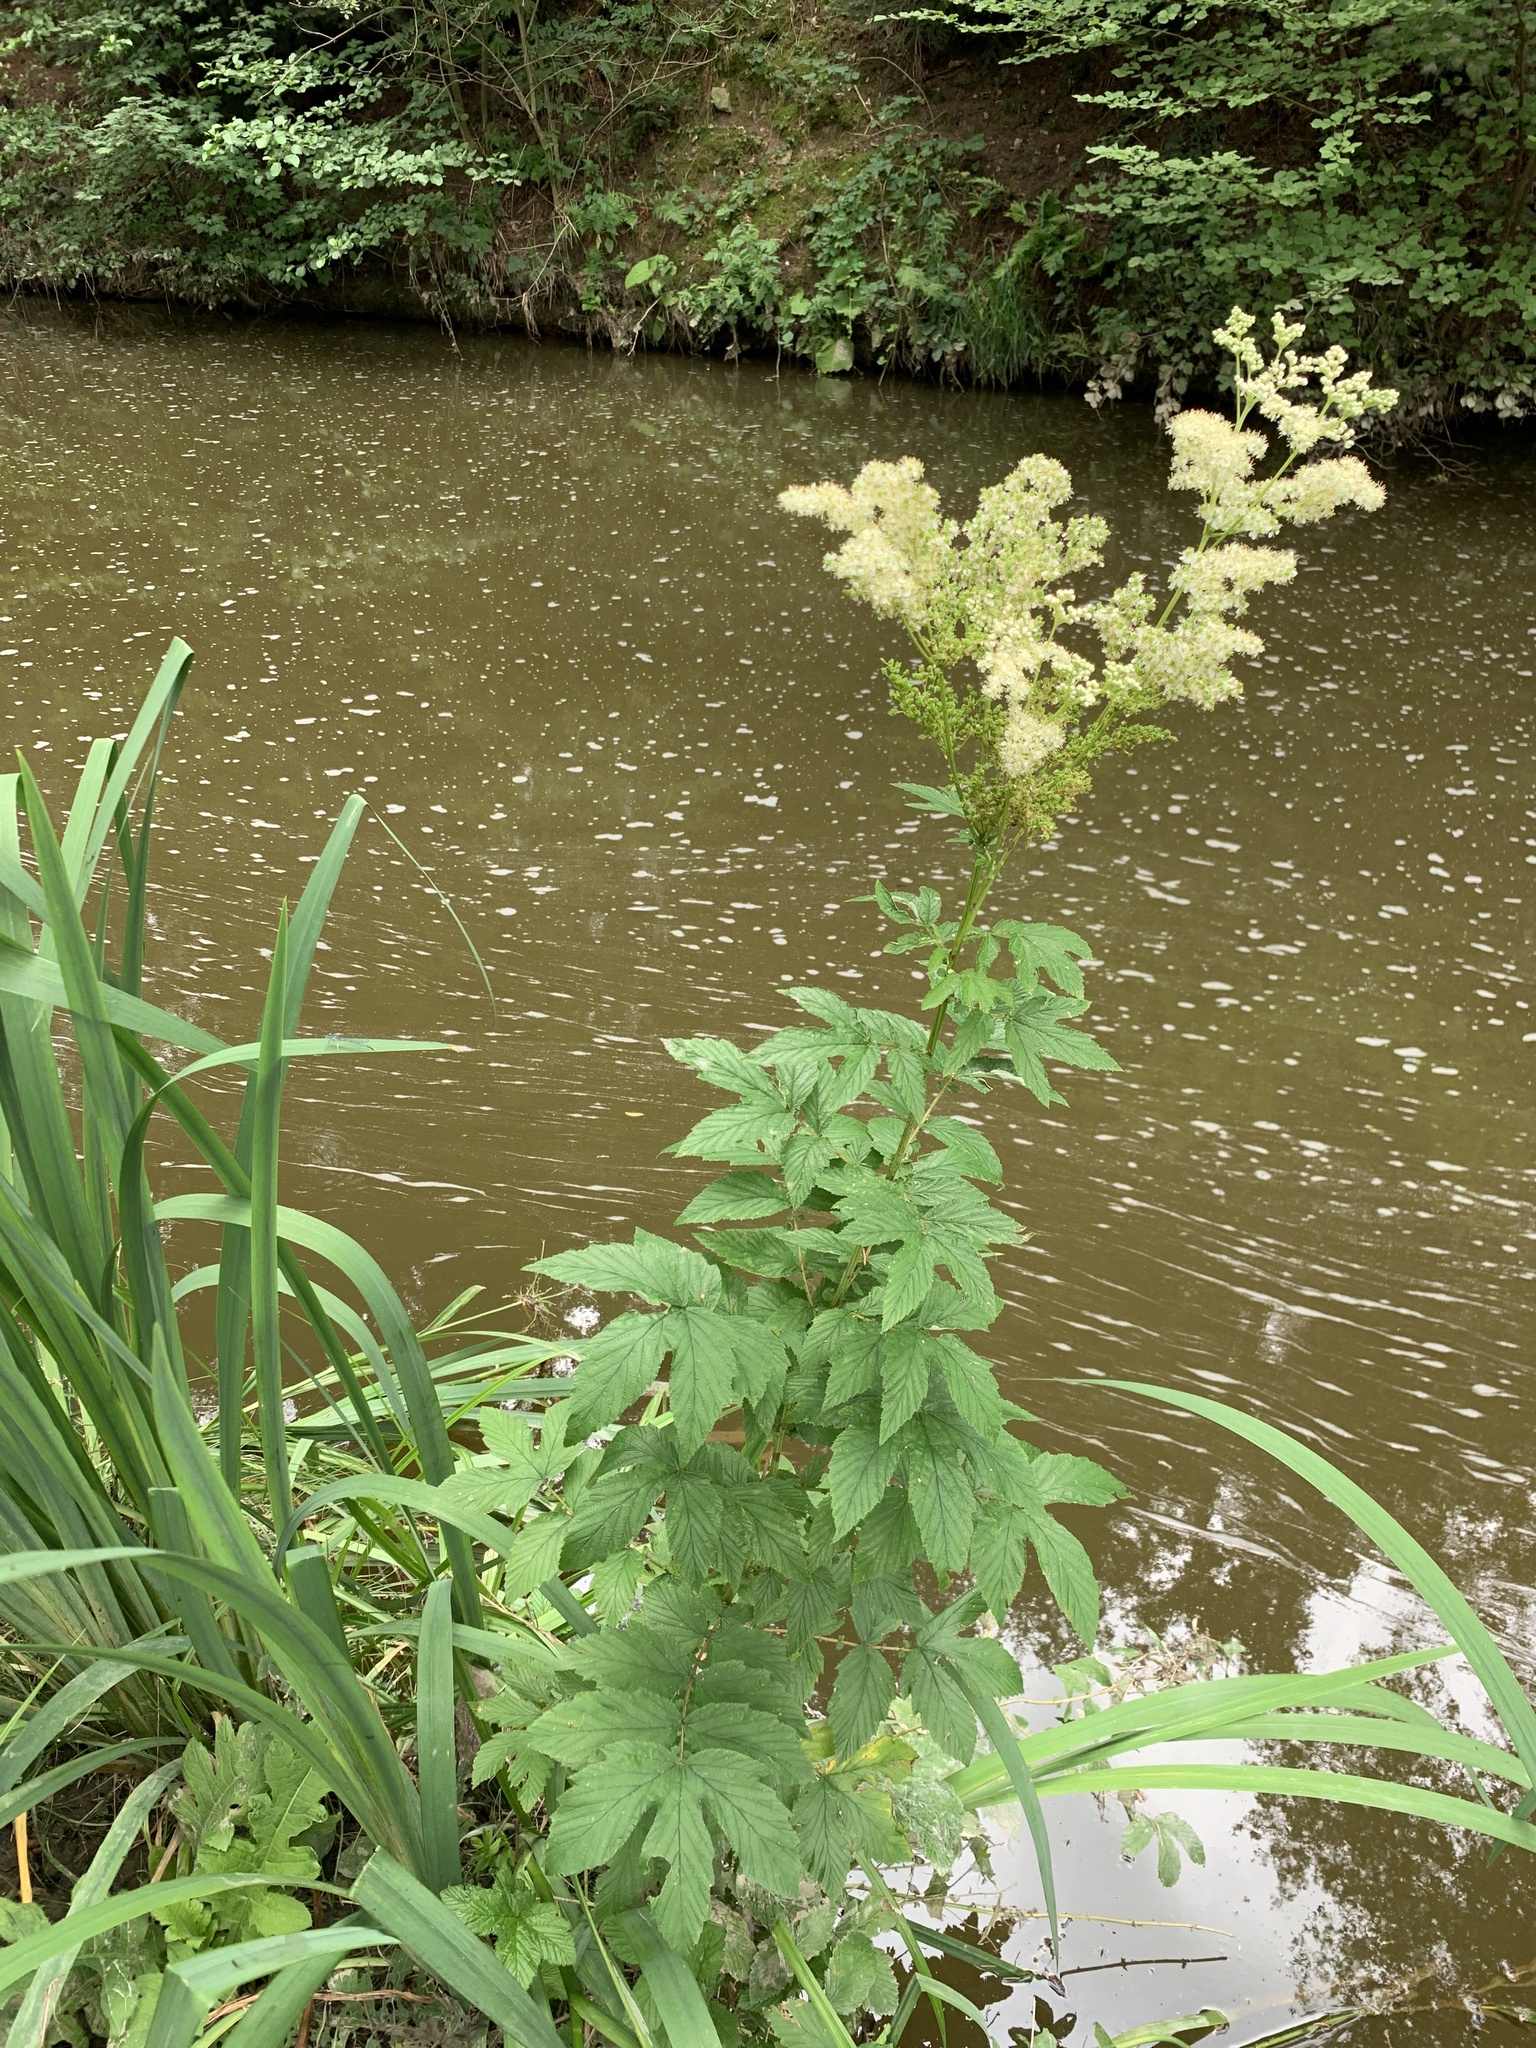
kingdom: Plantae
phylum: Tracheophyta
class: Magnoliopsida
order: Rosales
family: Rosaceae
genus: Filipendula
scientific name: Filipendula ulmaria
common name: Meadowsweet
